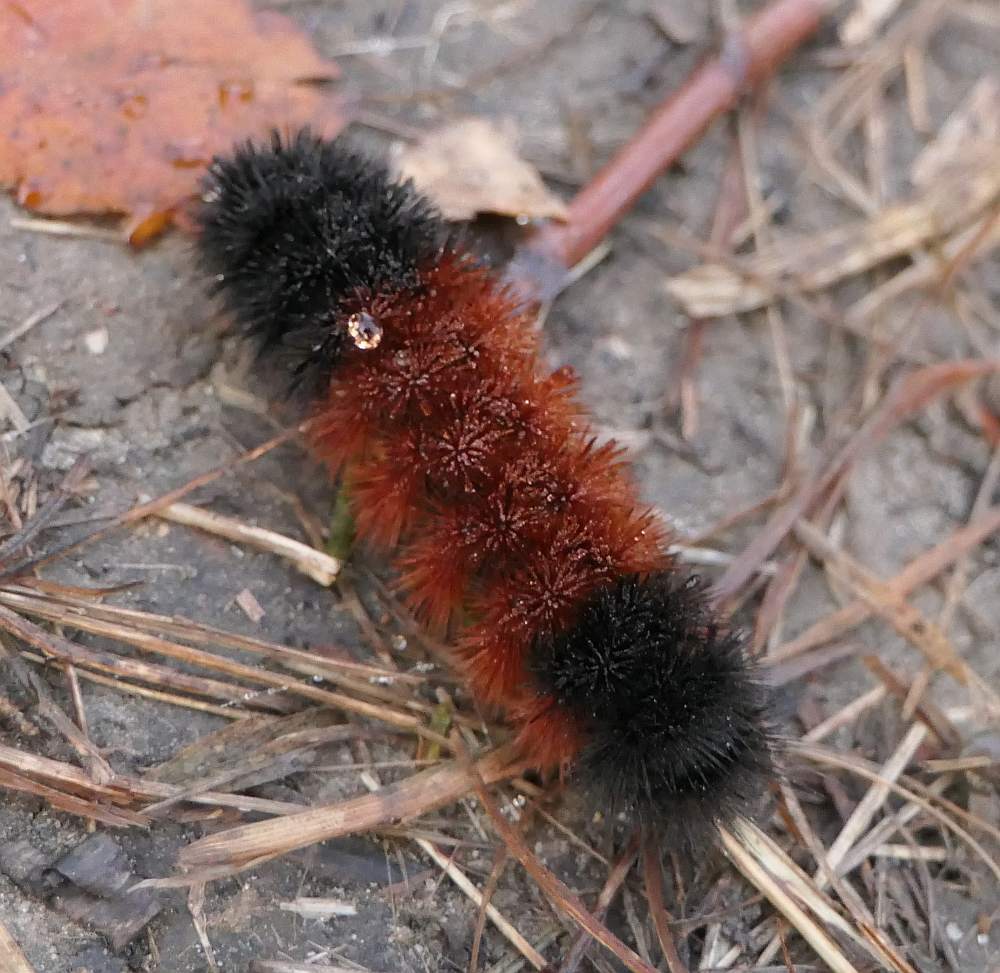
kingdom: Animalia
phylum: Arthropoda
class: Insecta
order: Lepidoptera
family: Erebidae
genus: Pyrrharctia
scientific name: Pyrrharctia isabella
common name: Isabella tiger moth
